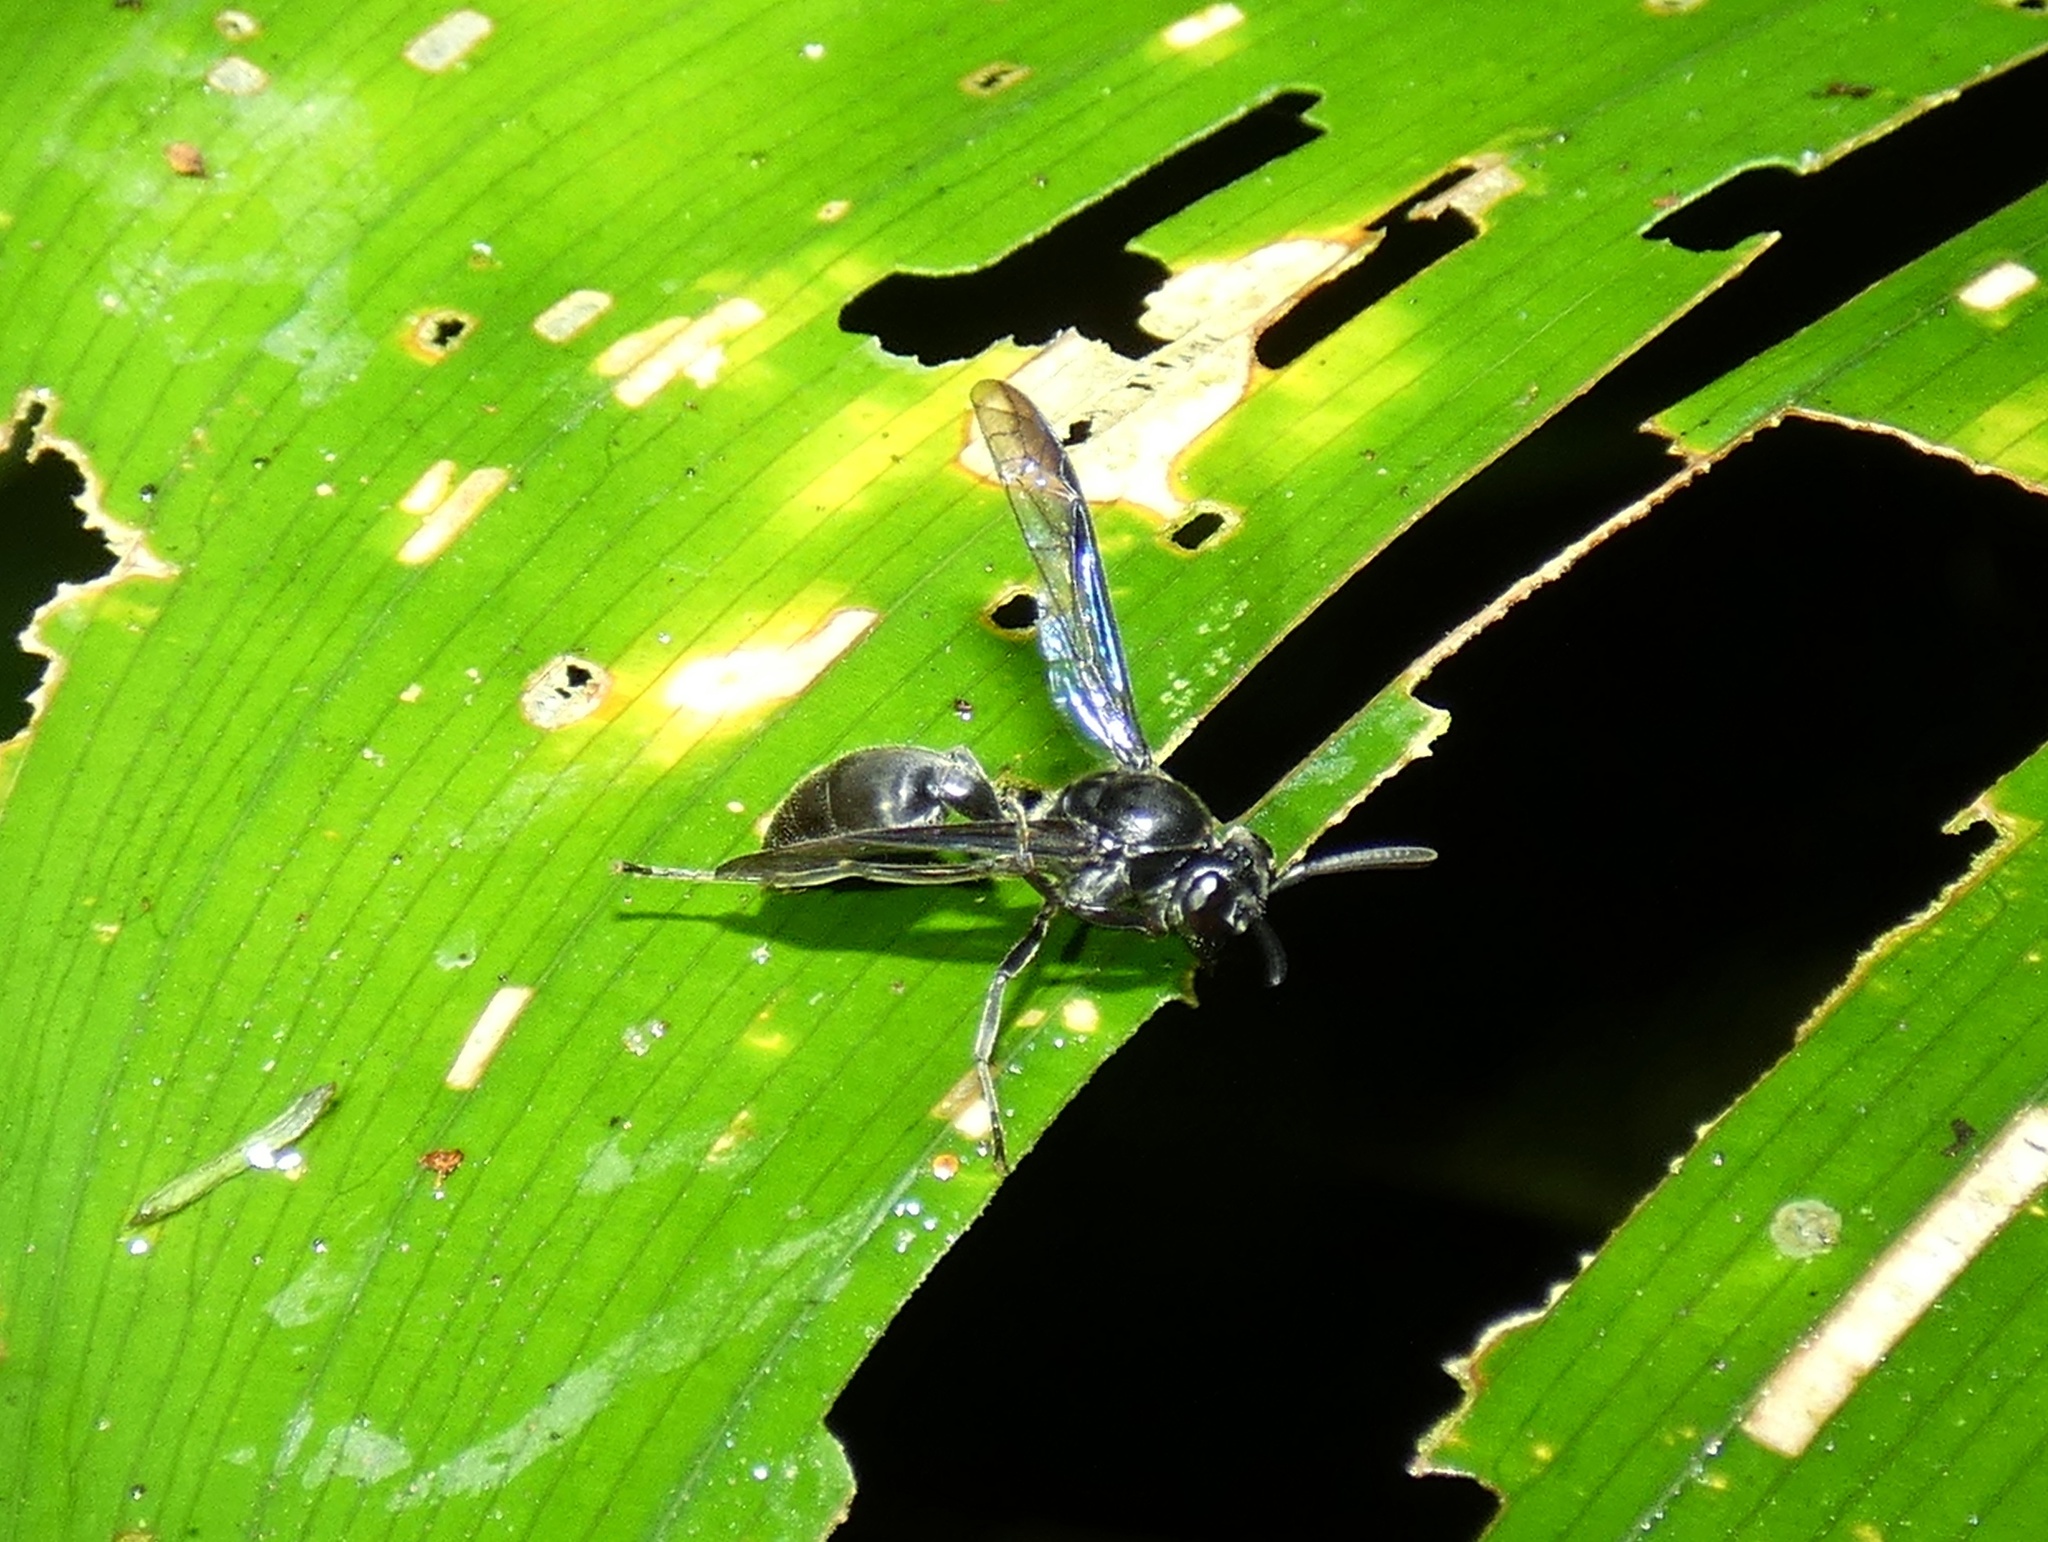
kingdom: Animalia
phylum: Arthropoda
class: Insecta
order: Hymenoptera
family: Eumenidae
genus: Polybia
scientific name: Polybia simillima
